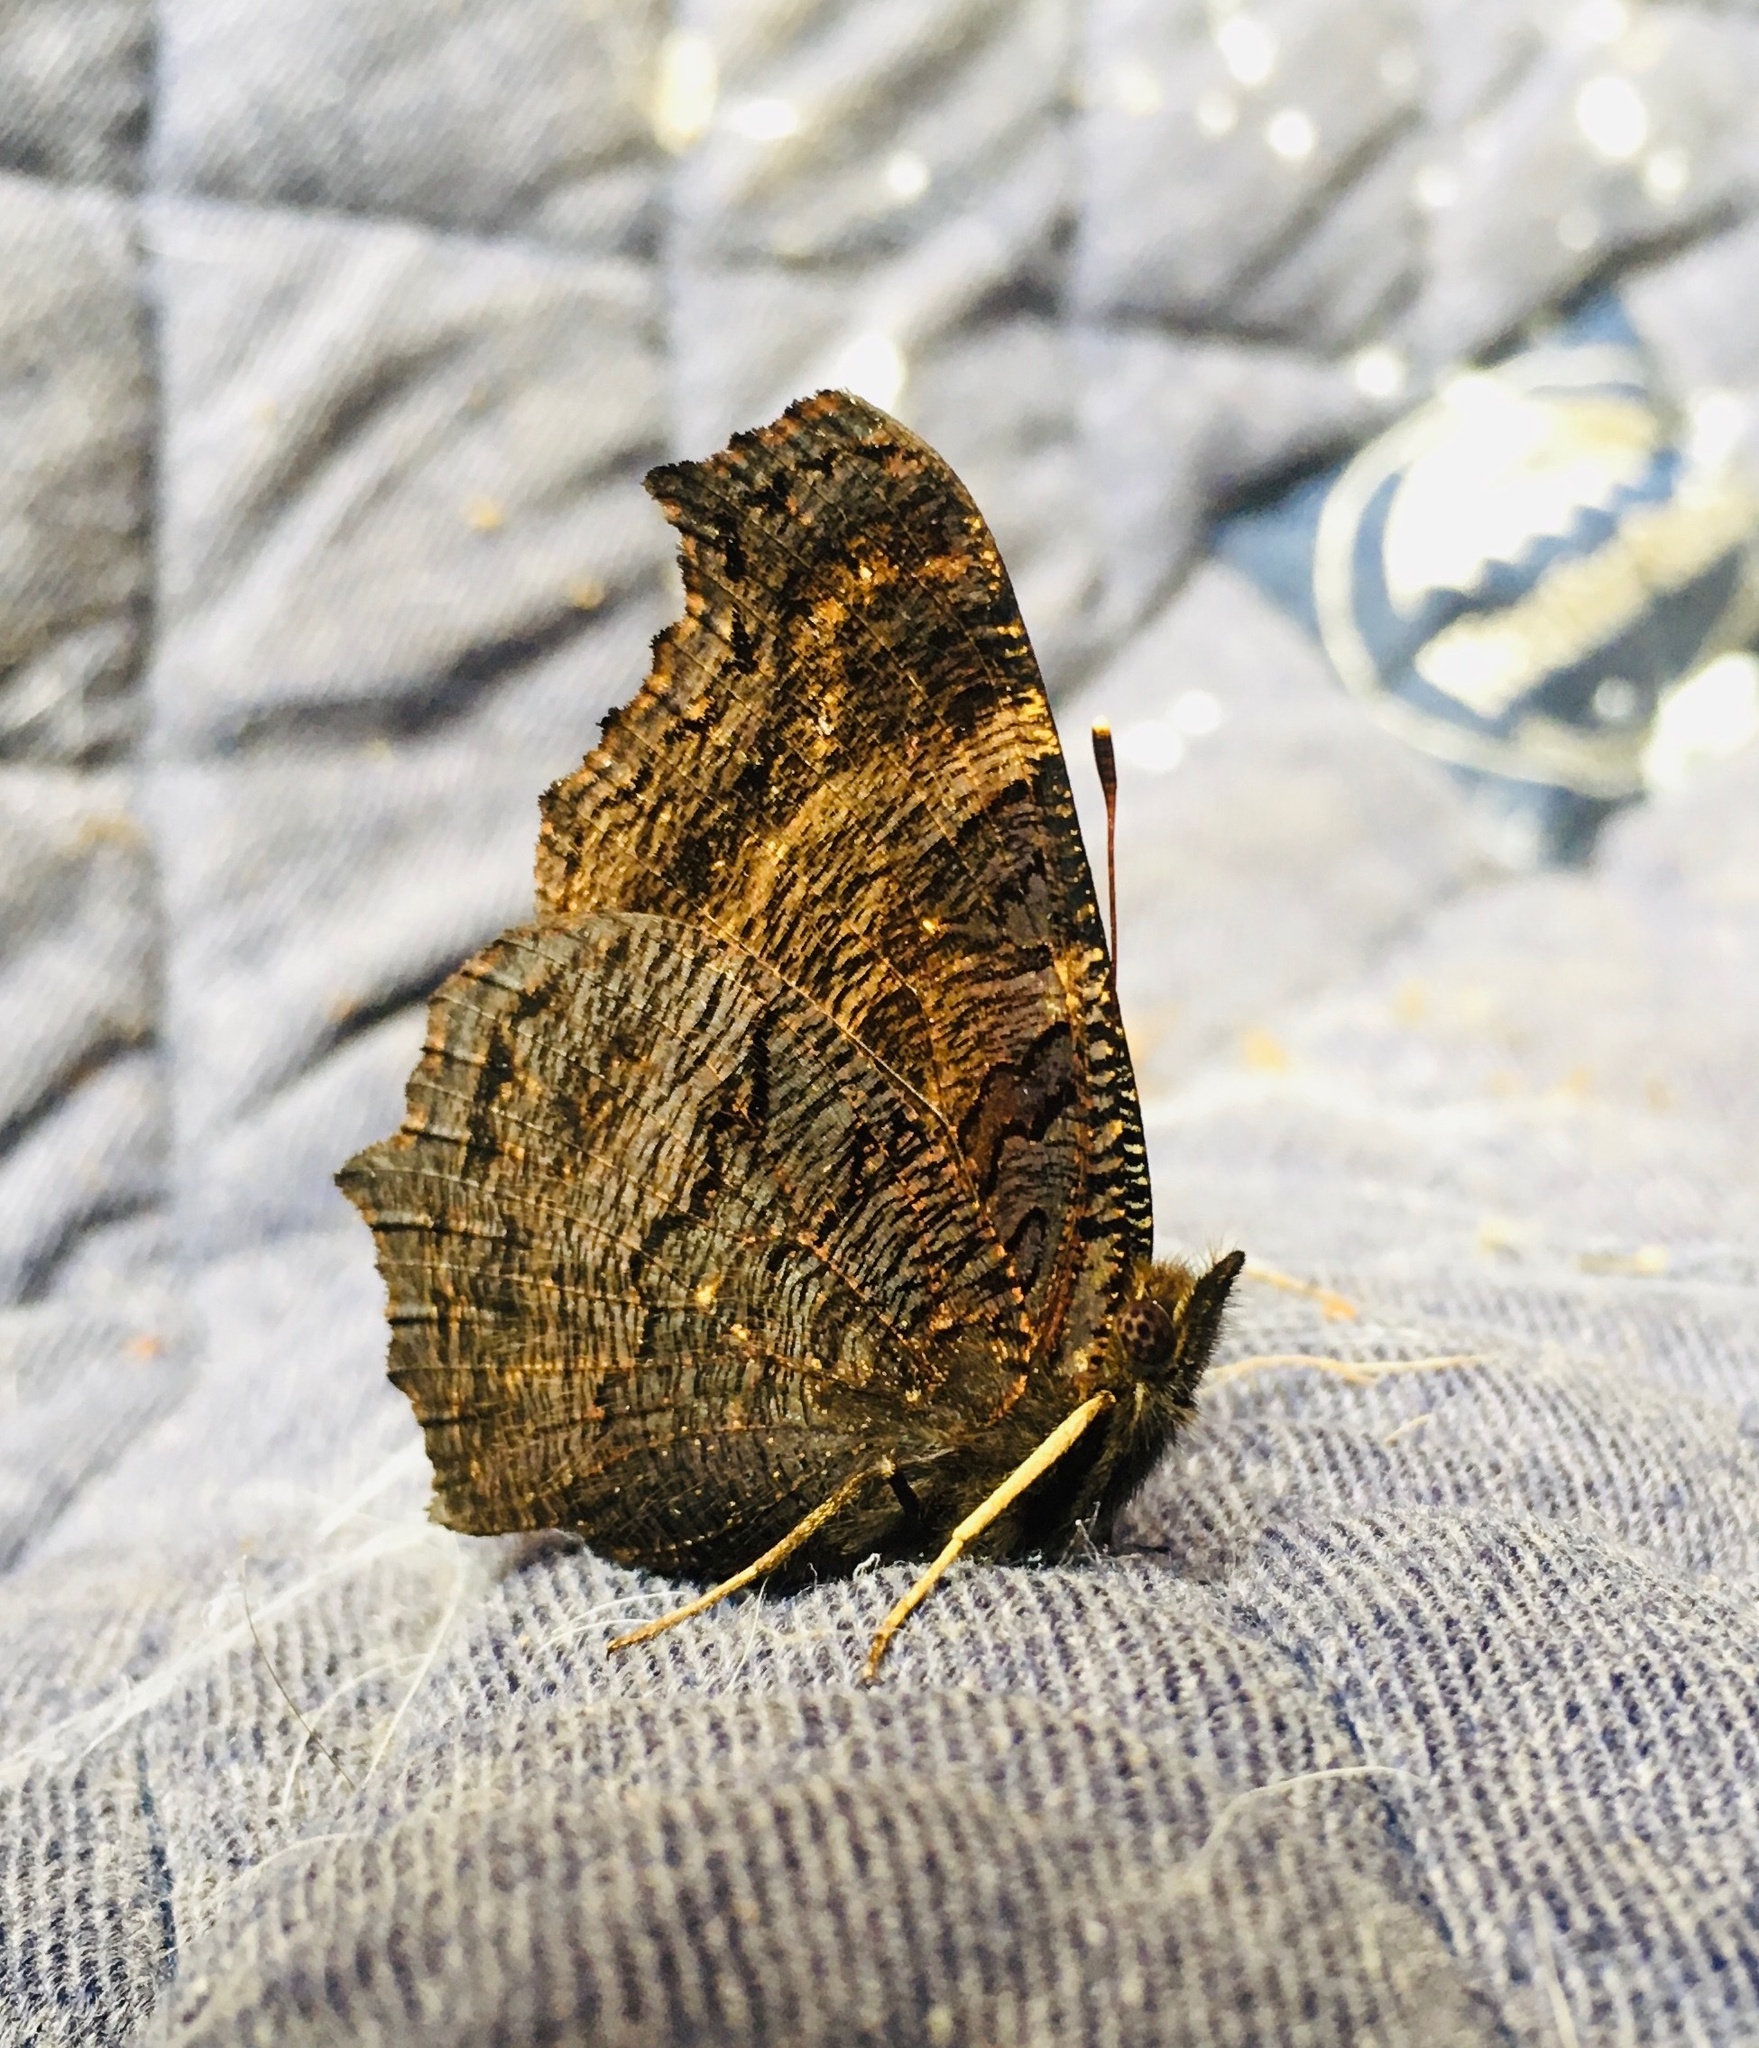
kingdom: Animalia
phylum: Arthropoda
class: Insecta
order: Lepidoptera
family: Nymphalidae
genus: Aglais
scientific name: Aglais urticae
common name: Small tortoiseshell
